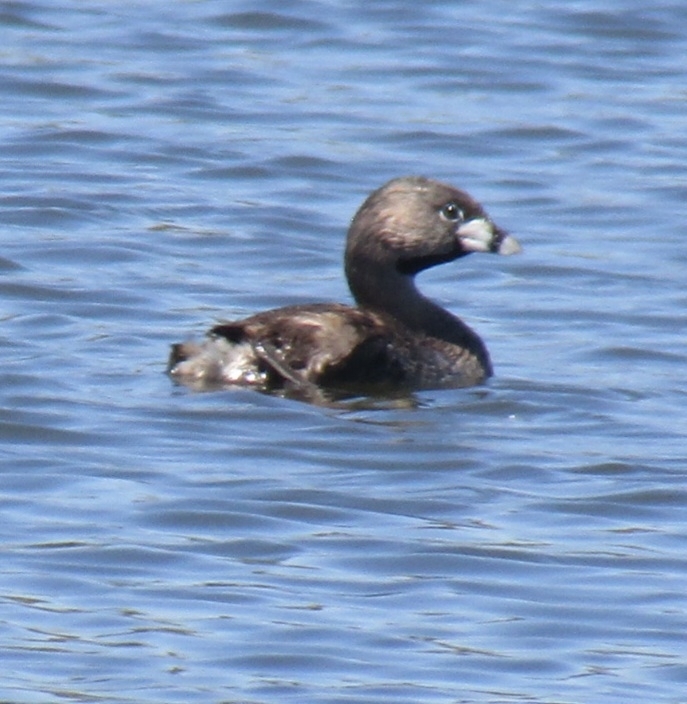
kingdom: Animalia
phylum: Chordata
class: Aves
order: Podicipediformes
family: Podicipedidae
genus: Podilymbus
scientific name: Podilymbus podiceps
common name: Pied-billed grebe
